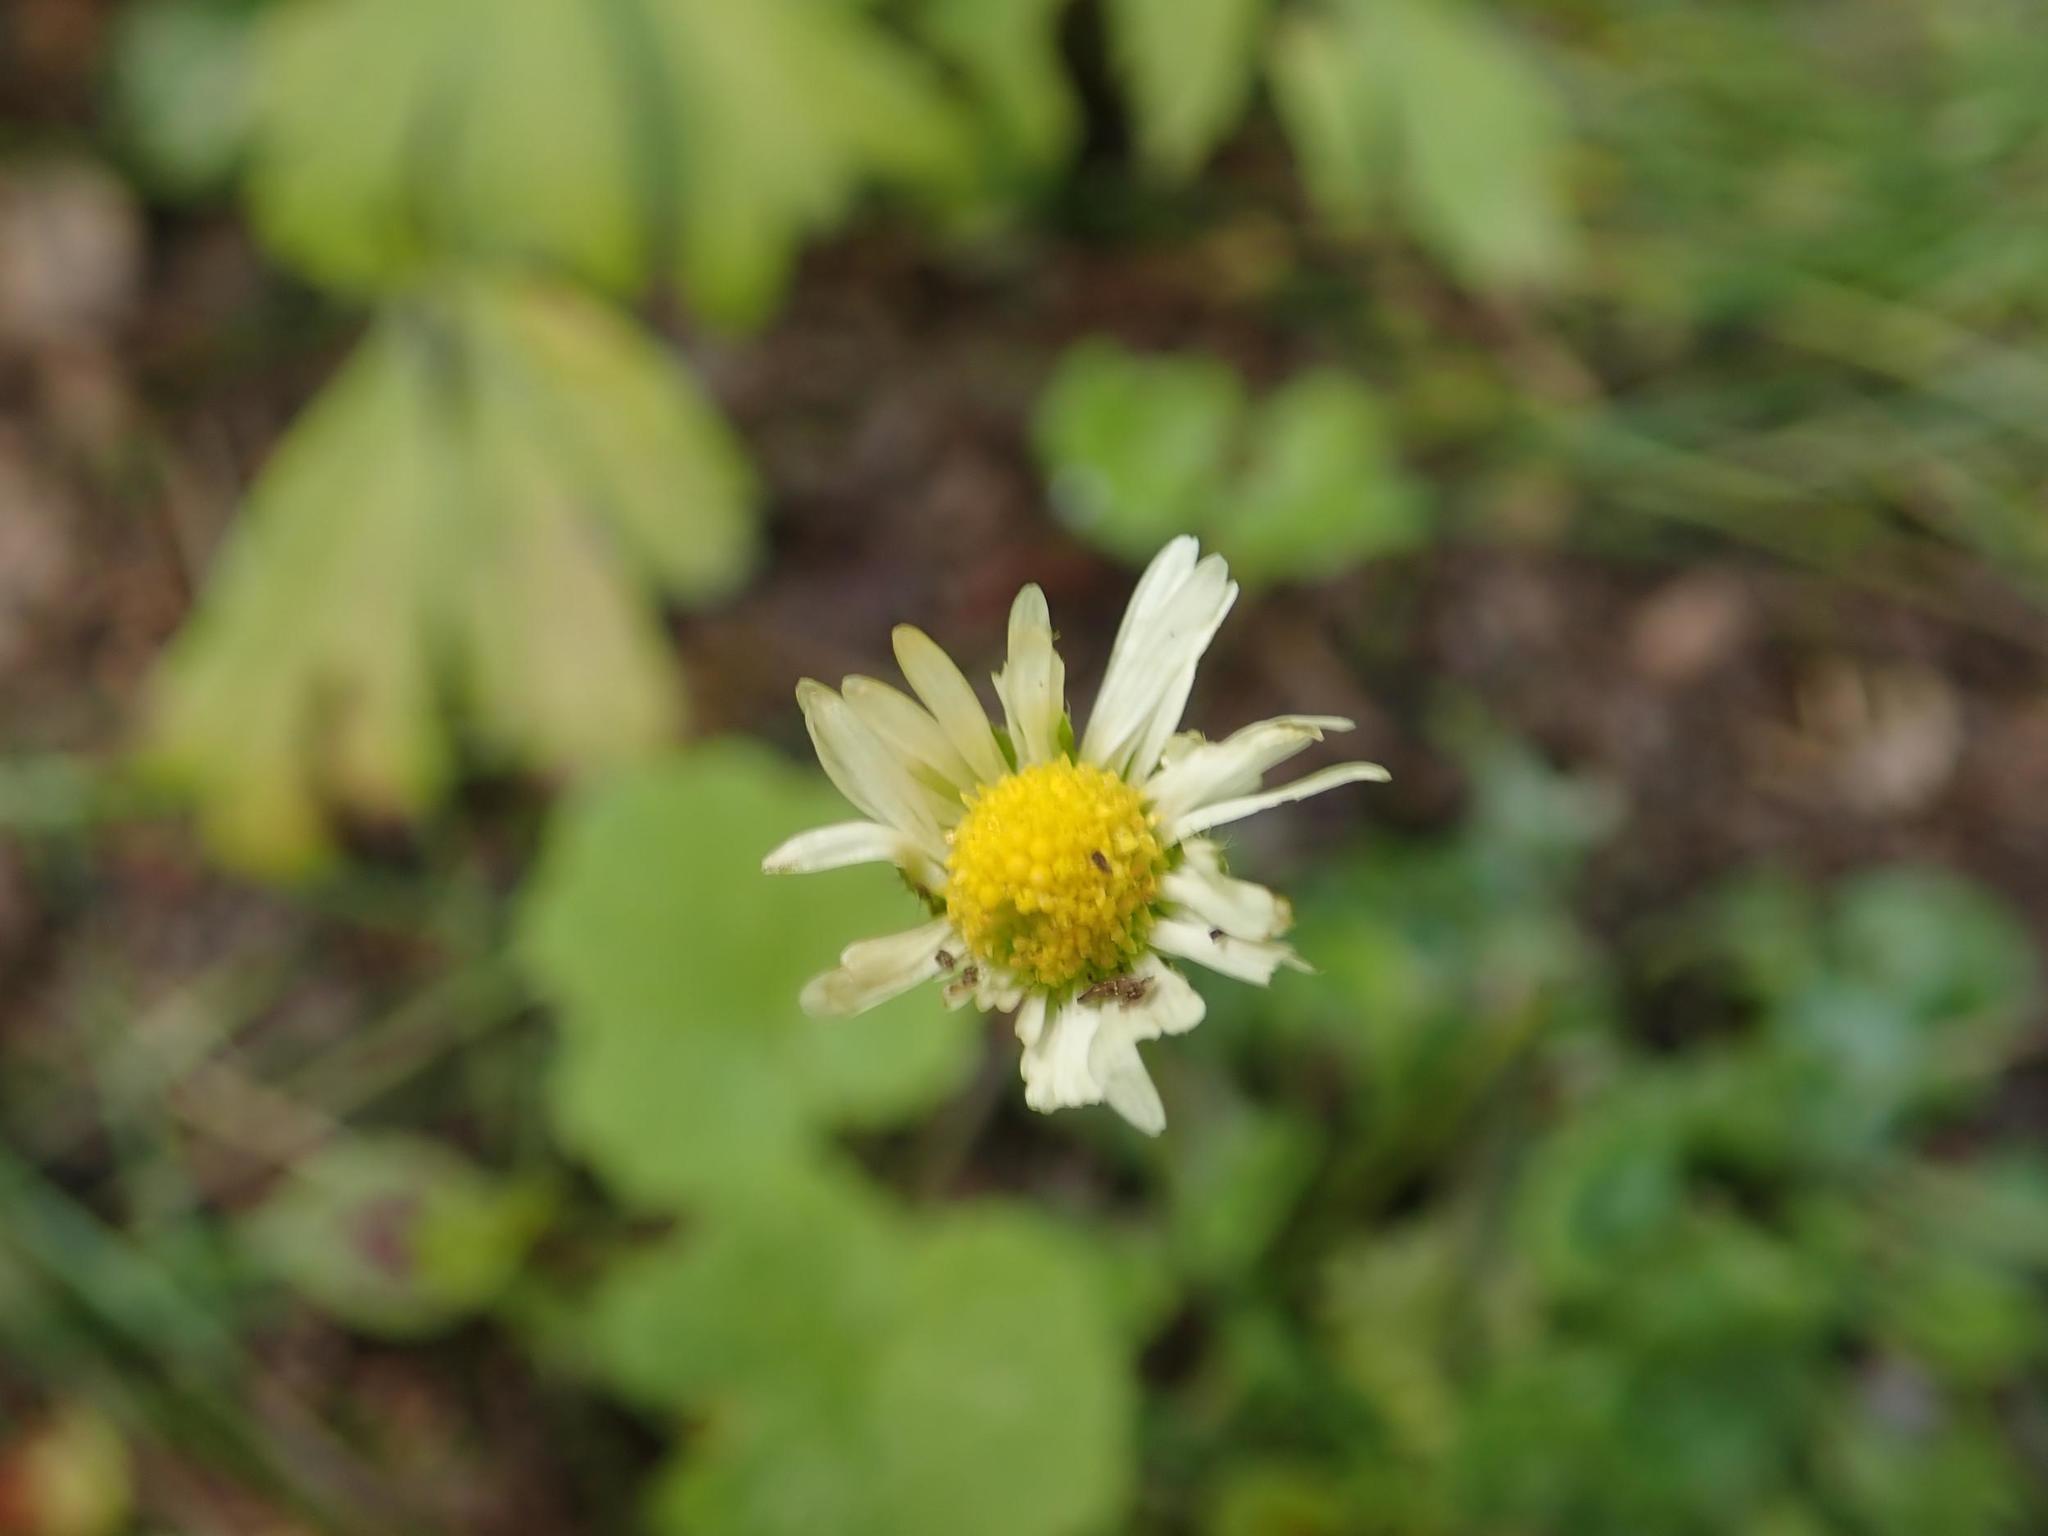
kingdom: Plantae
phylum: Tracheophyta
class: Magnoliopsida
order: Asterales
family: Asteraceae
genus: Bellis
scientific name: Bellis perennis
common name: Lawndaisy
